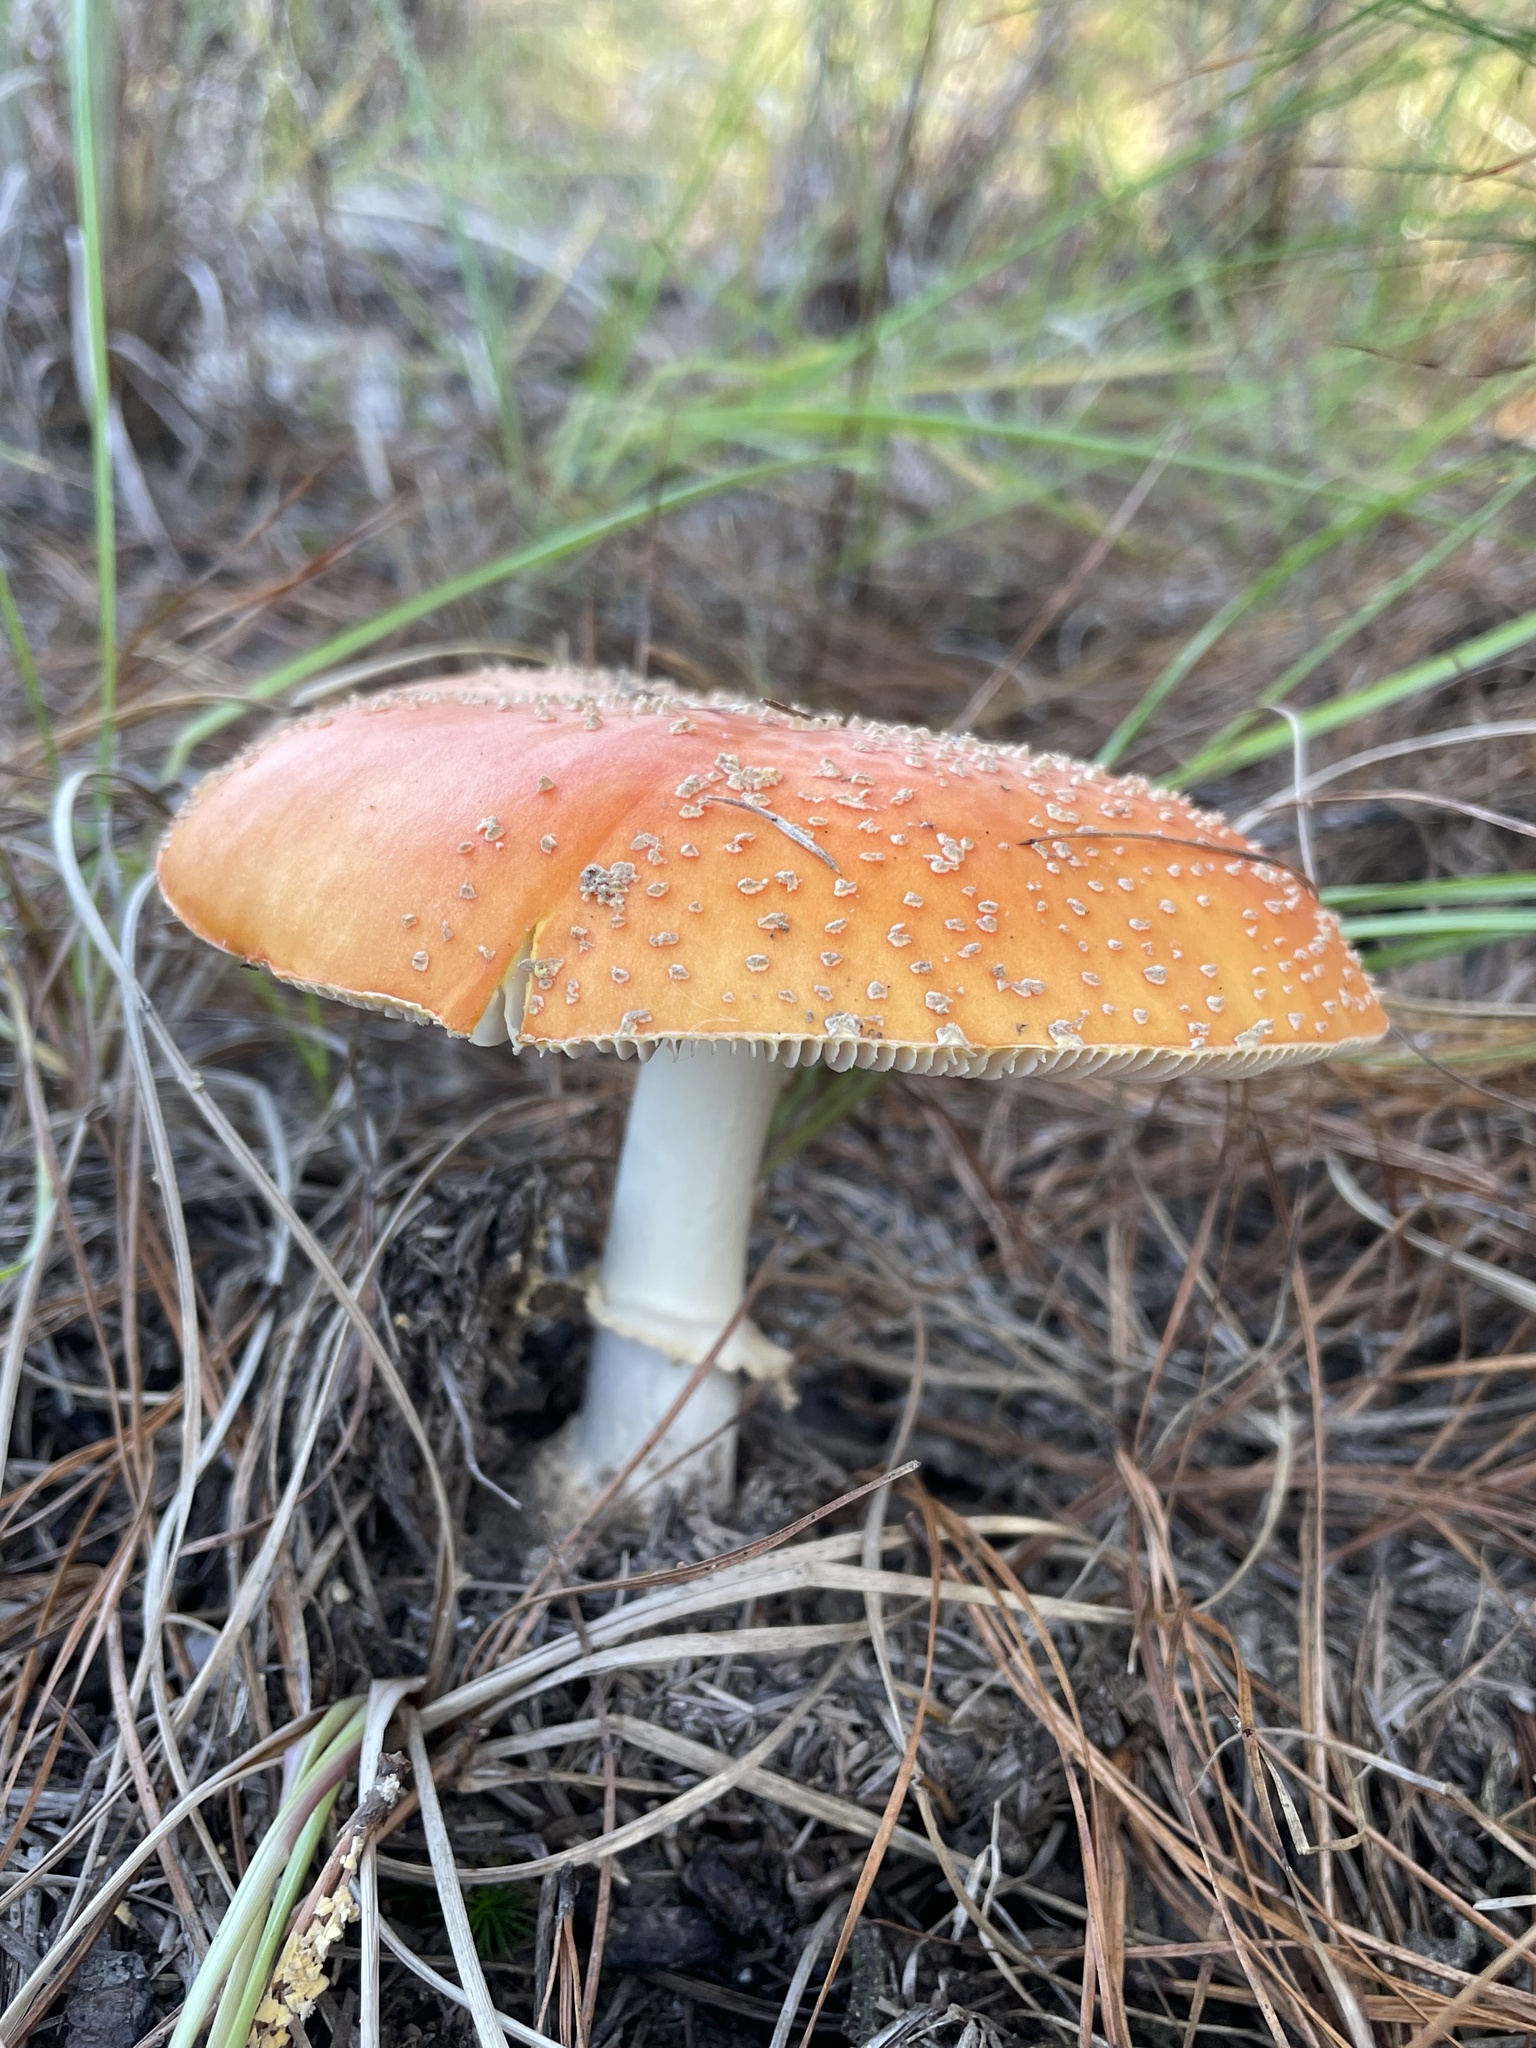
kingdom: Fungi
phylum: Basidiomycota
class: Agaricomycetes
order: Agaricales
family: Amanitaceae
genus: Amanita
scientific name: Amanita persicina
